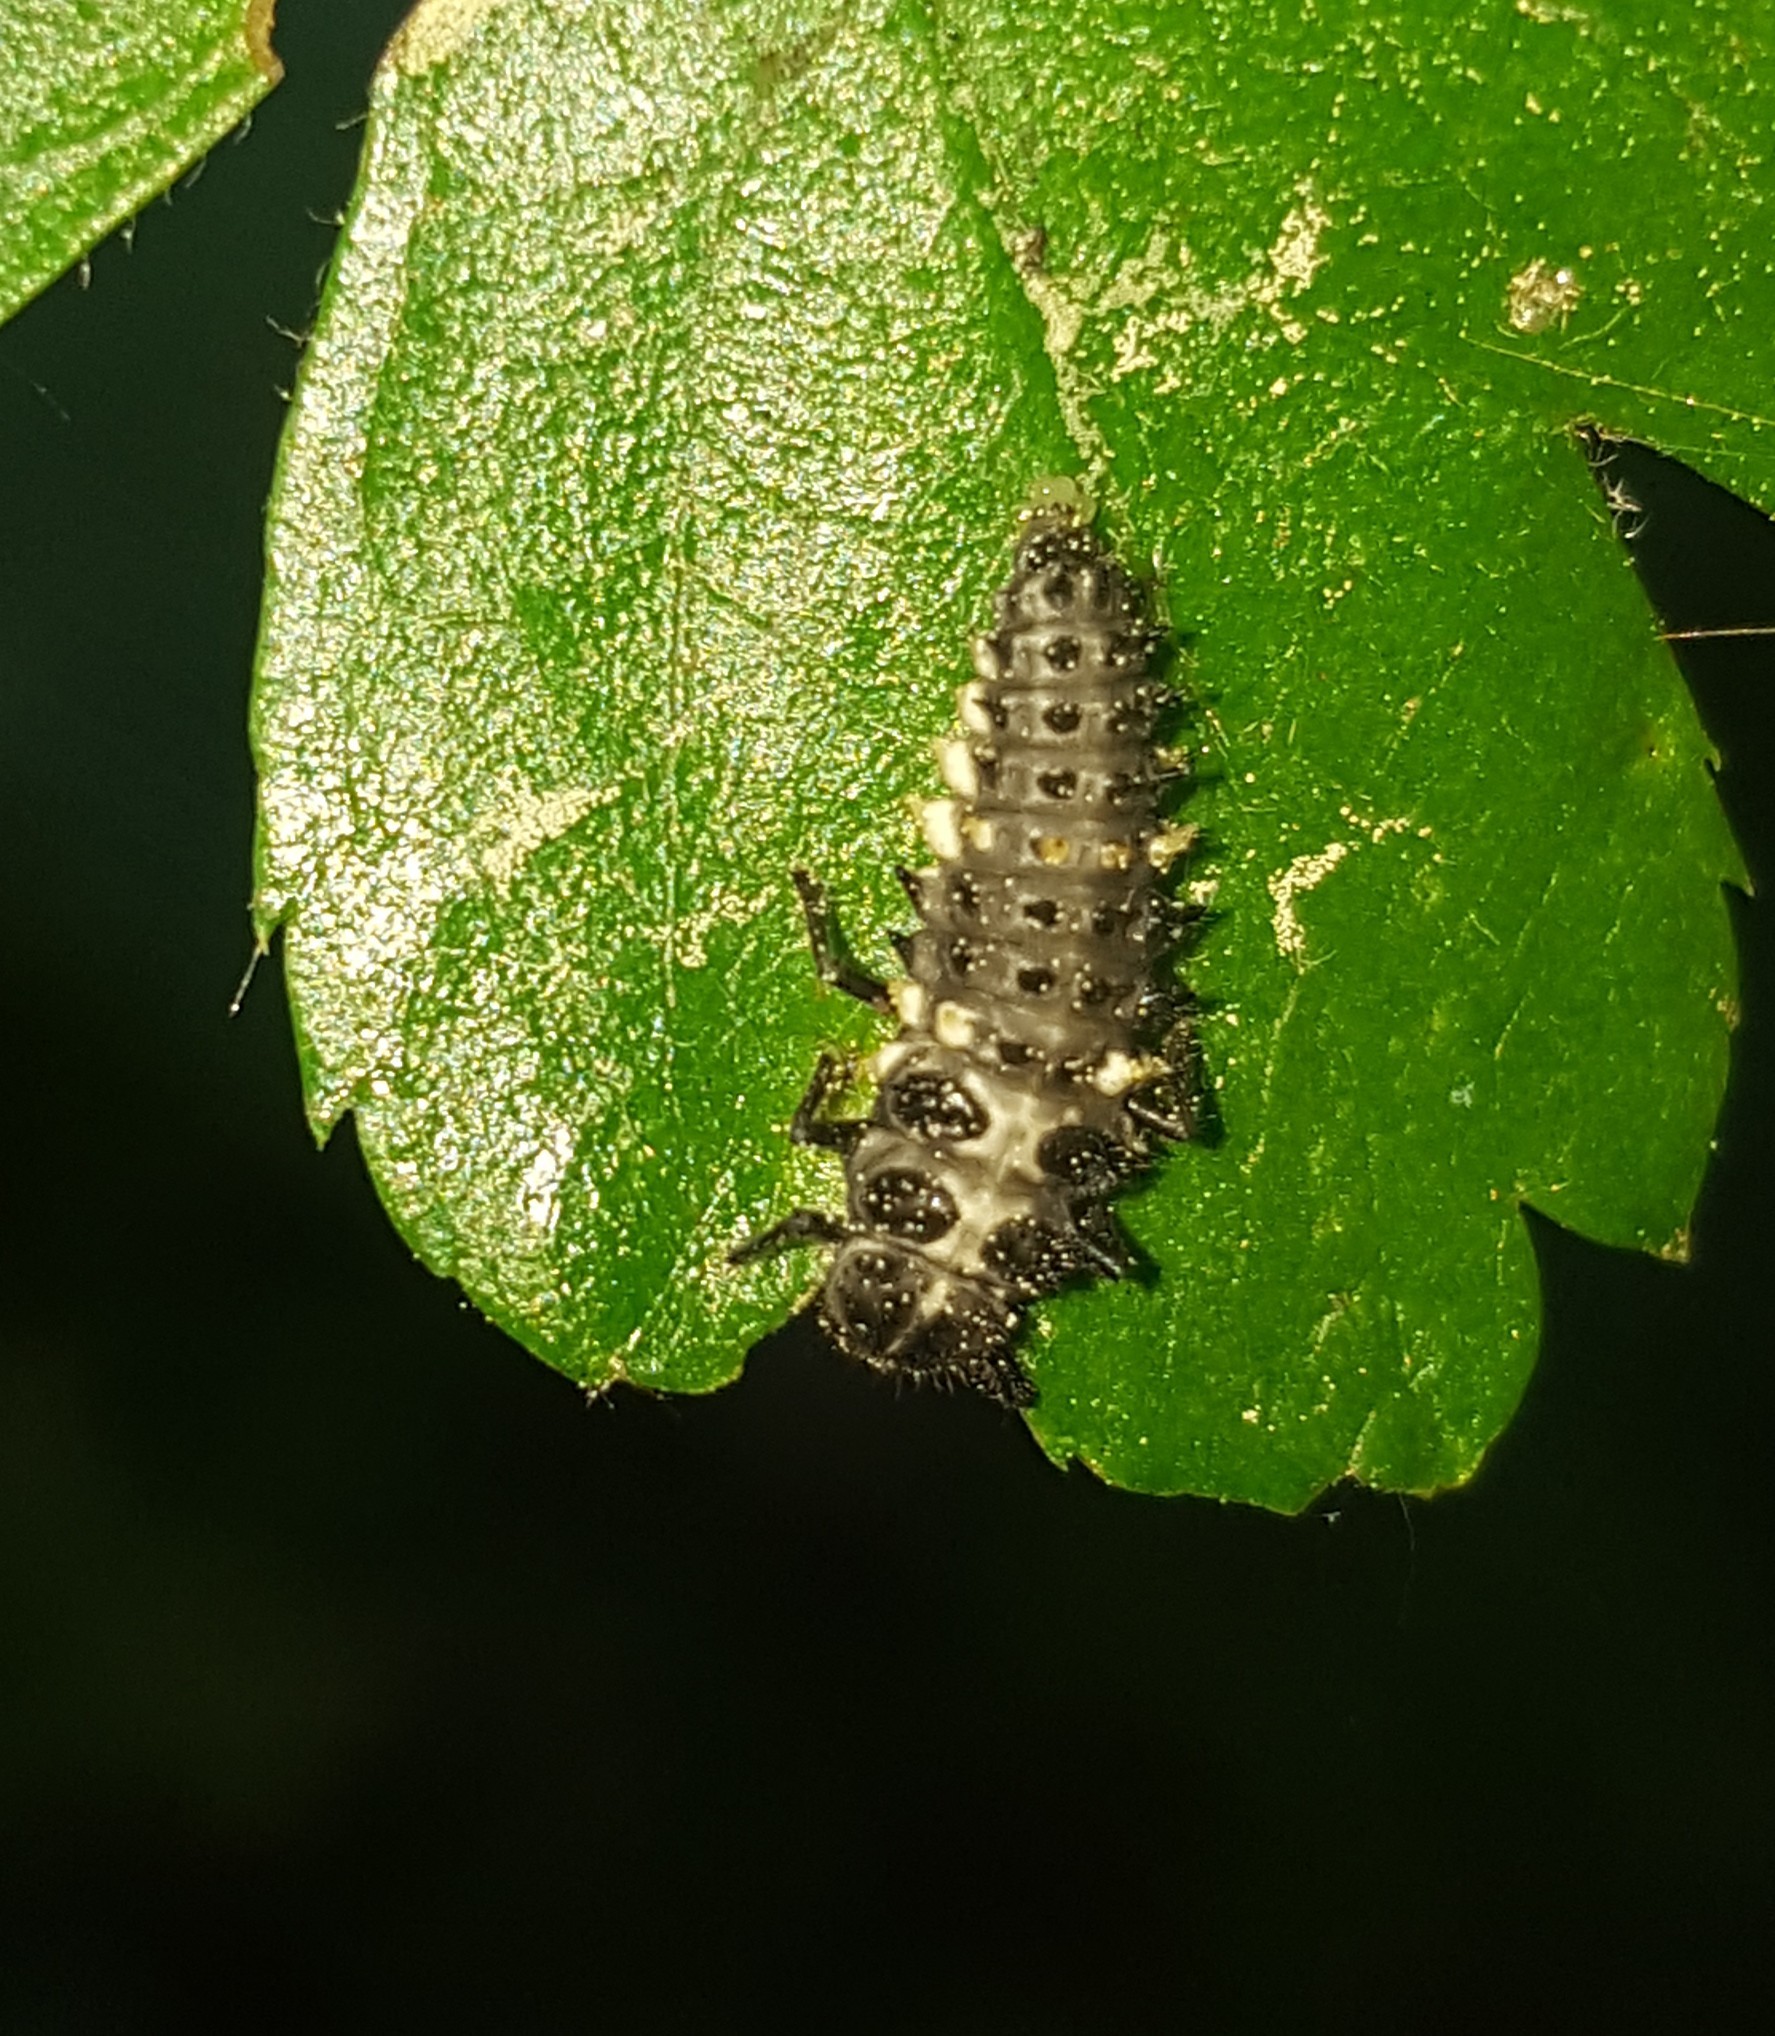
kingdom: Animalia
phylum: Arthropoda
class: Insecta
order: Coleoptera
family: Coccinellidae
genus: Calvia
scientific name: Calvia quatuordecimguttata
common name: Cream-spot ladybird
